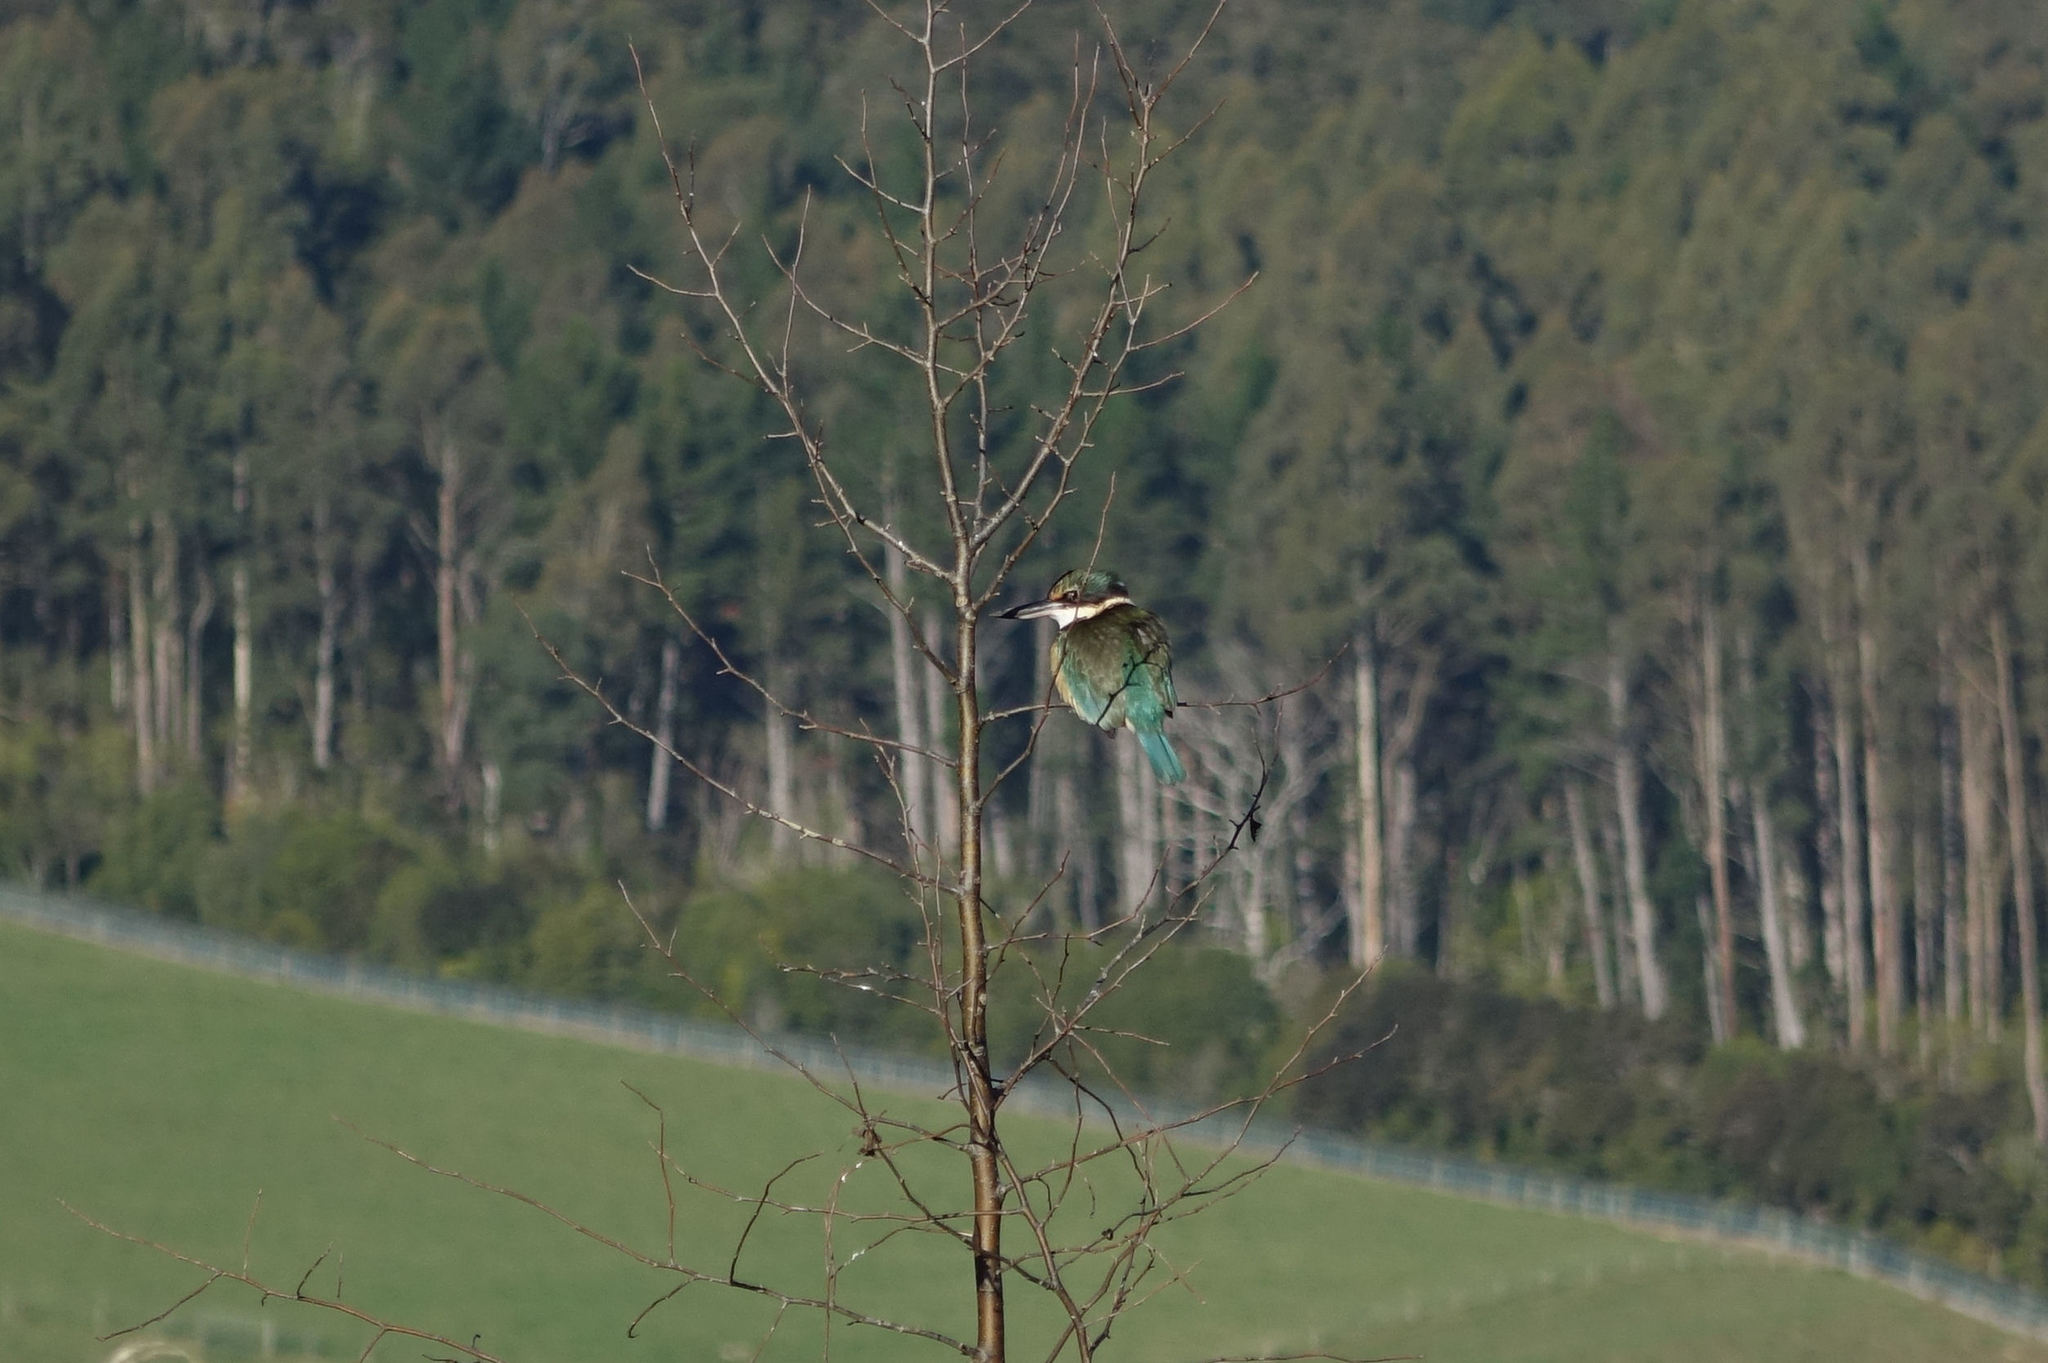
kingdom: Animalia
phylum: Chordata
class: Aves
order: Coraciiformes
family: Alcedinidae
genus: Todiramphus
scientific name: Todiramphus sanctus
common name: Sacred kingfisher
